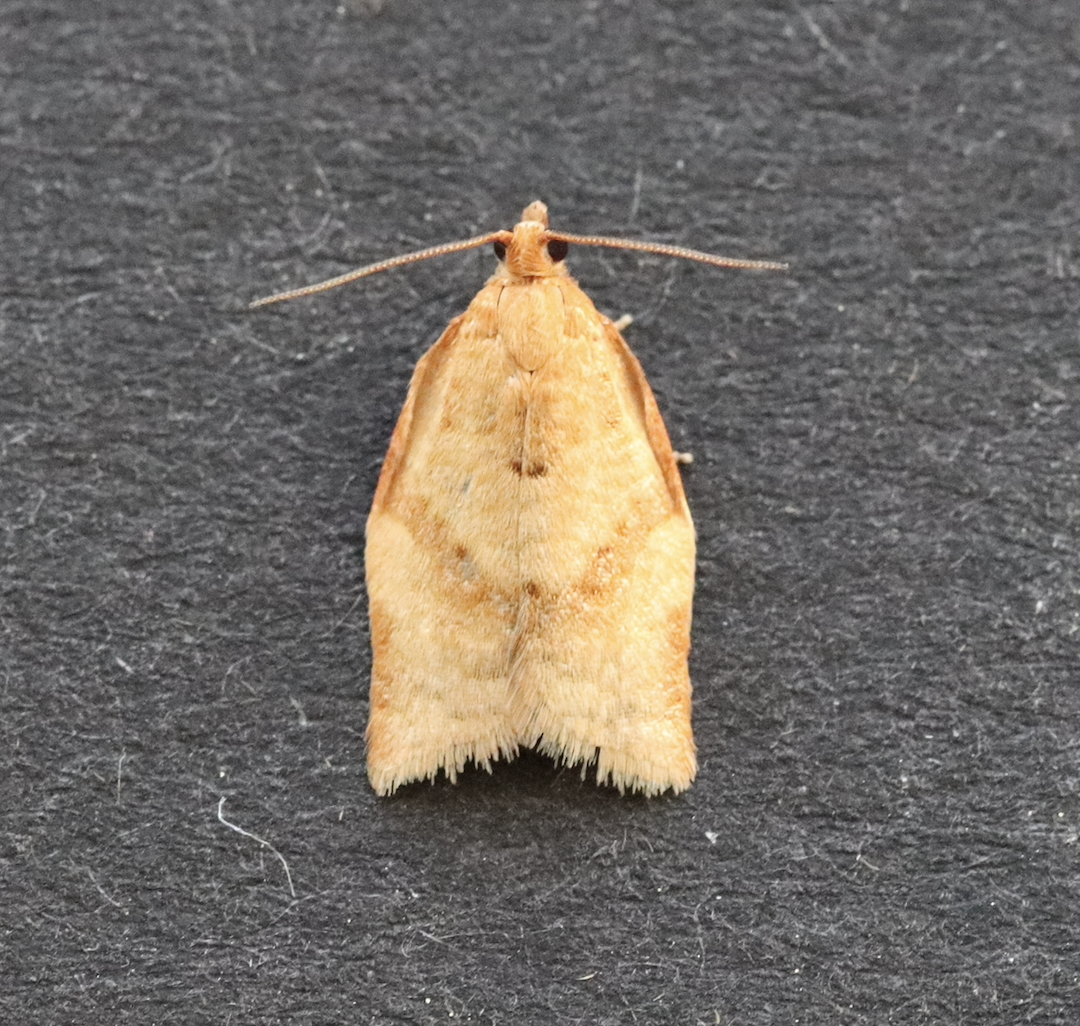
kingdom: Animalia
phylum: Arthropoda
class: Insecta
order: Lepidoptera
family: Tortricidae
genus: Clepsis
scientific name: Clepsis consimilana
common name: Privet tortrix
